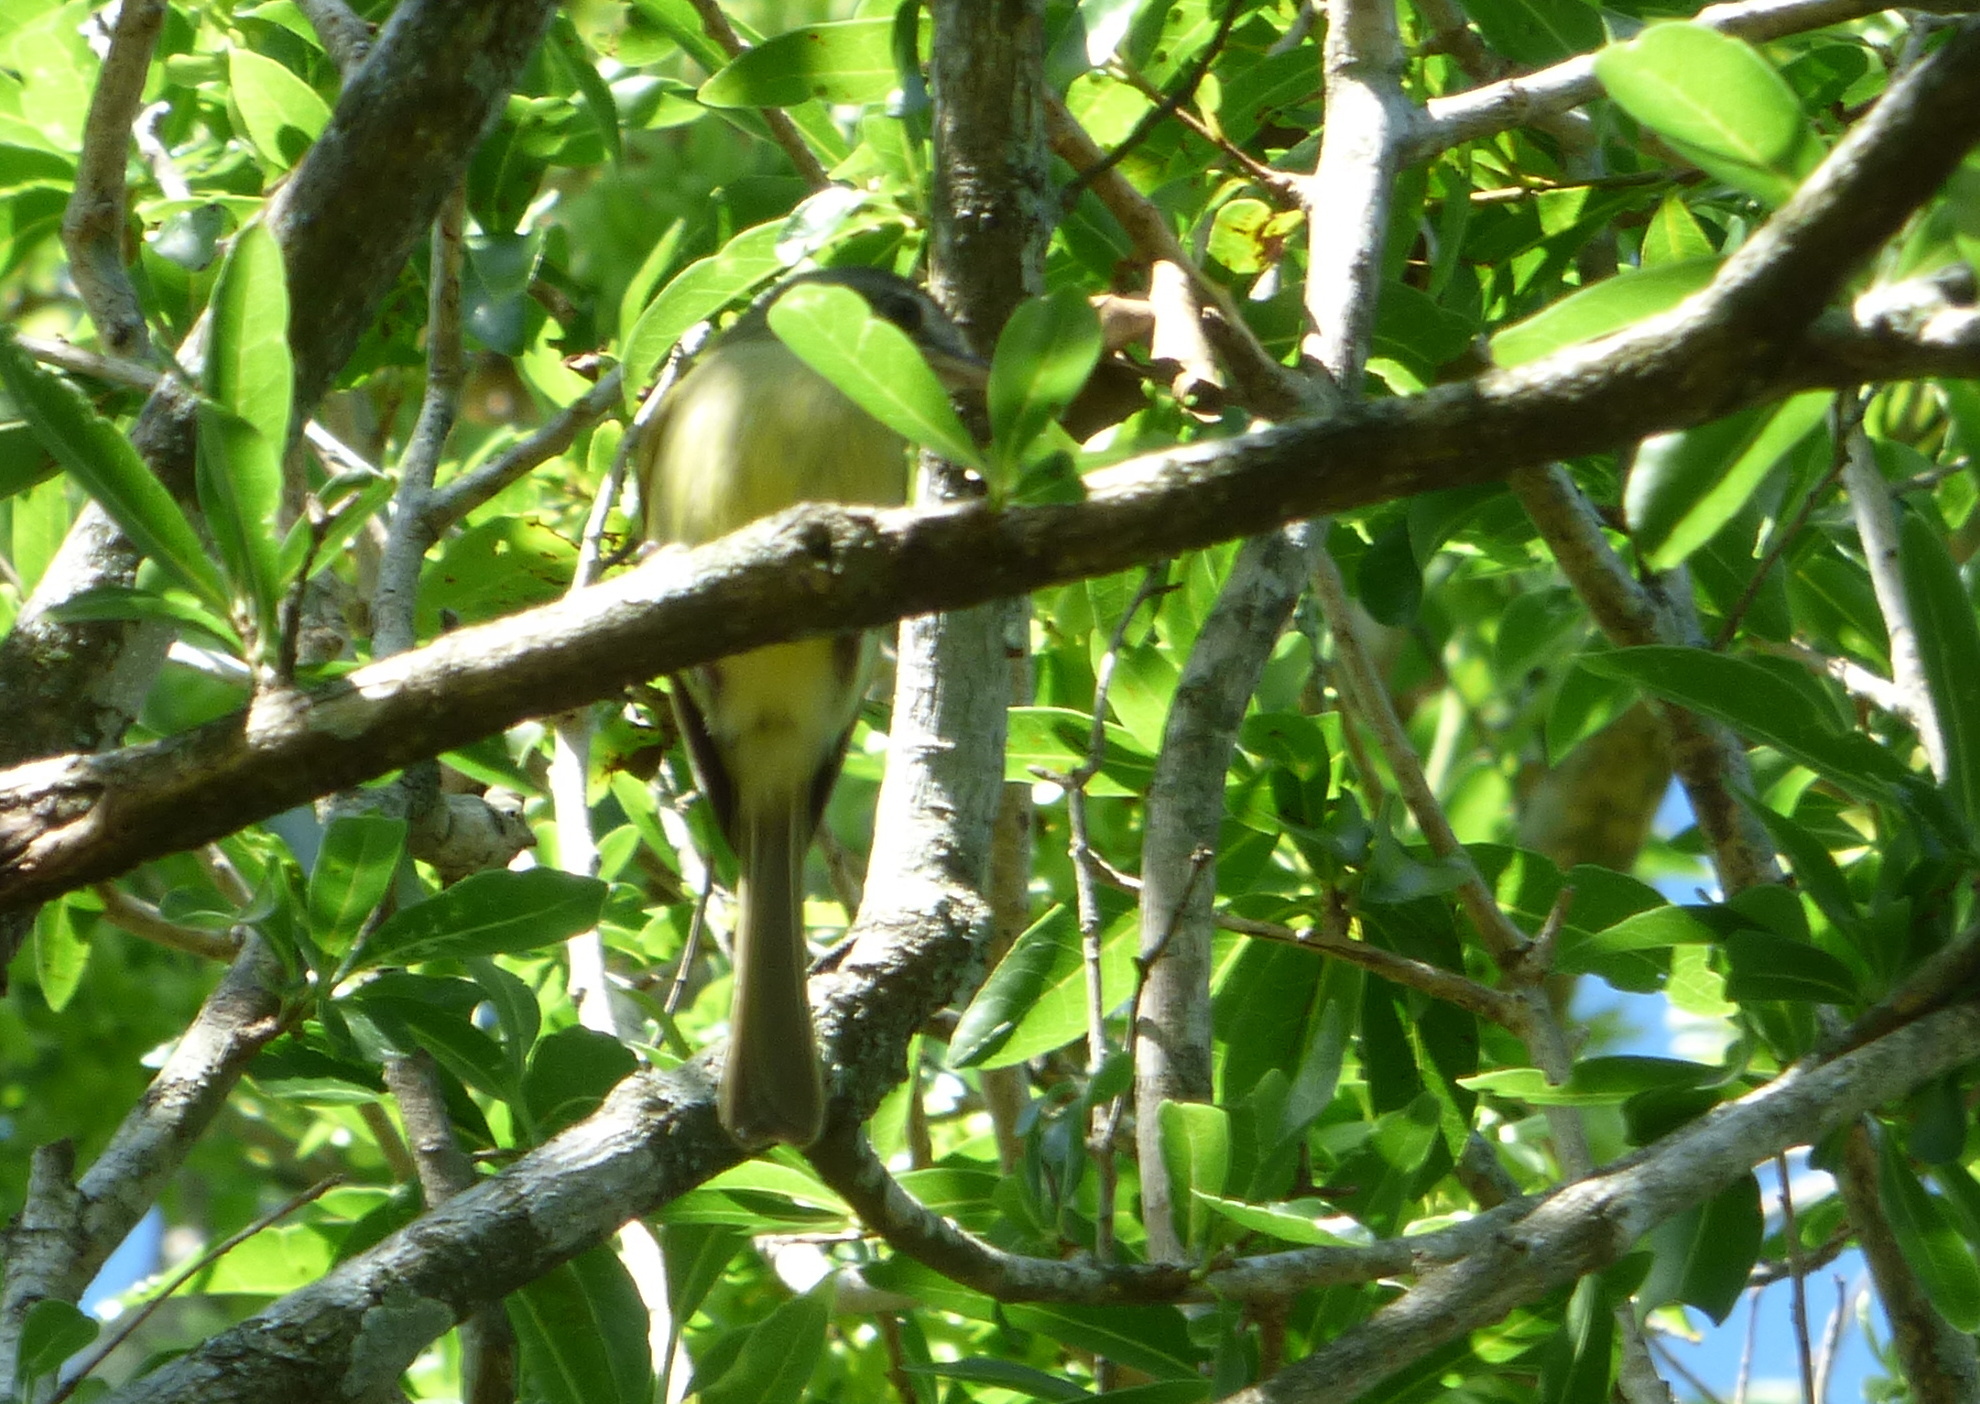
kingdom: Animalia
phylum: Chordata
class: Aves
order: Passeriformes
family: Tyrannidae
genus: Tolmomyias
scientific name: Tolmomyias sulphurescens
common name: Yellow-olive flycatcher
